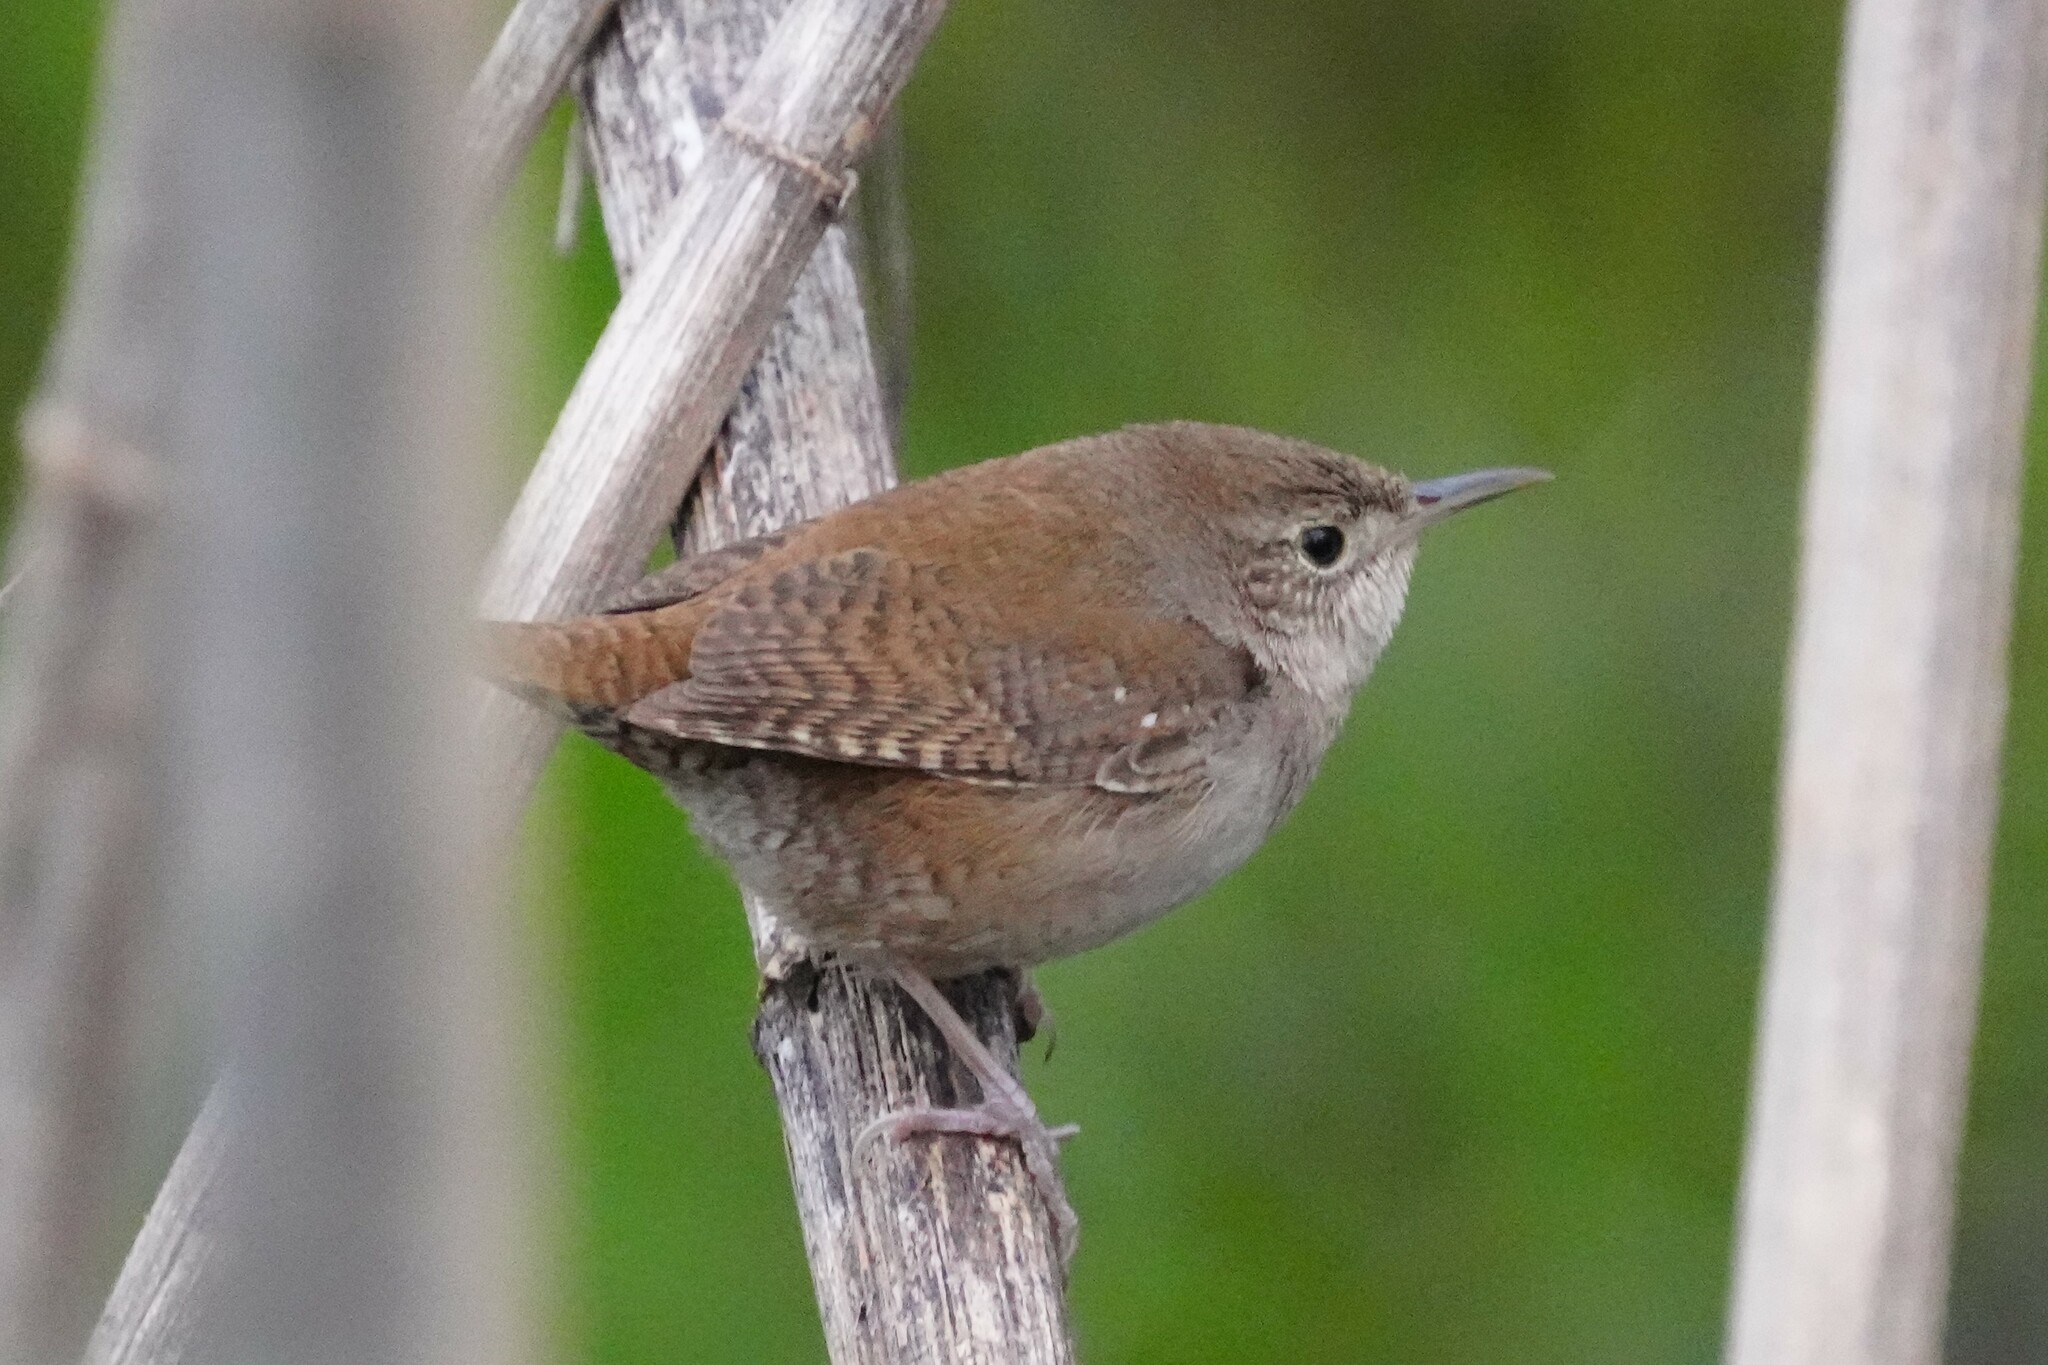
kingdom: Animalia
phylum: Chordata
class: Aves
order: Passeriformes
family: Troglodytidae
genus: Troglodytes
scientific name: Troglodytes aedon
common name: House wren
